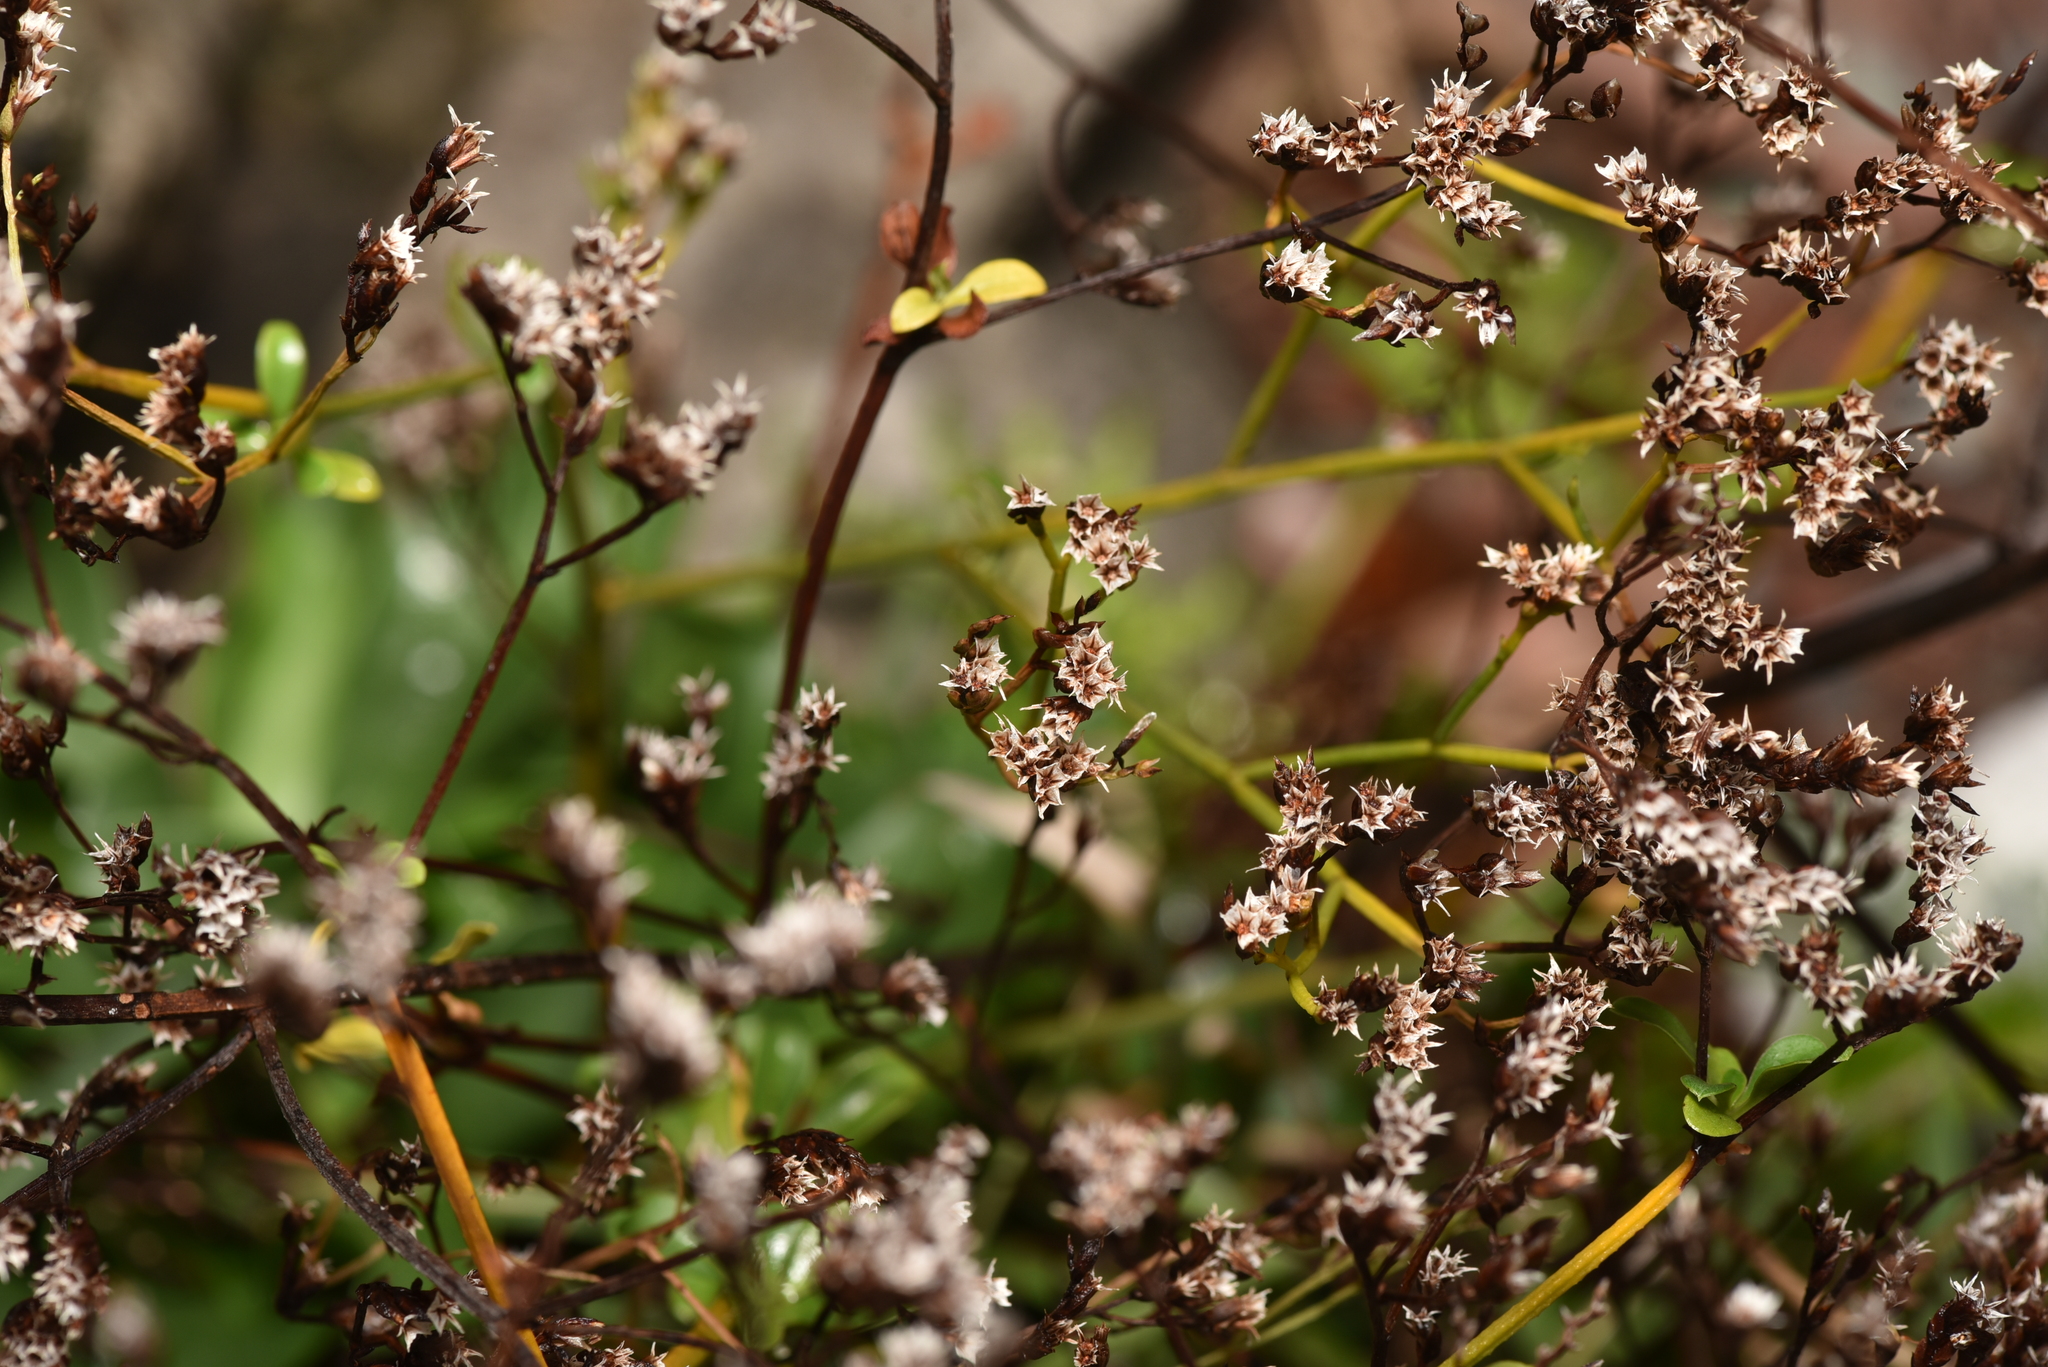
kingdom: Plantae
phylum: Tracheophyta
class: Magnoliopsida
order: Caryophyllales
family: Plumbaginaceae
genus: Limonium
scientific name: Limonium sinense
